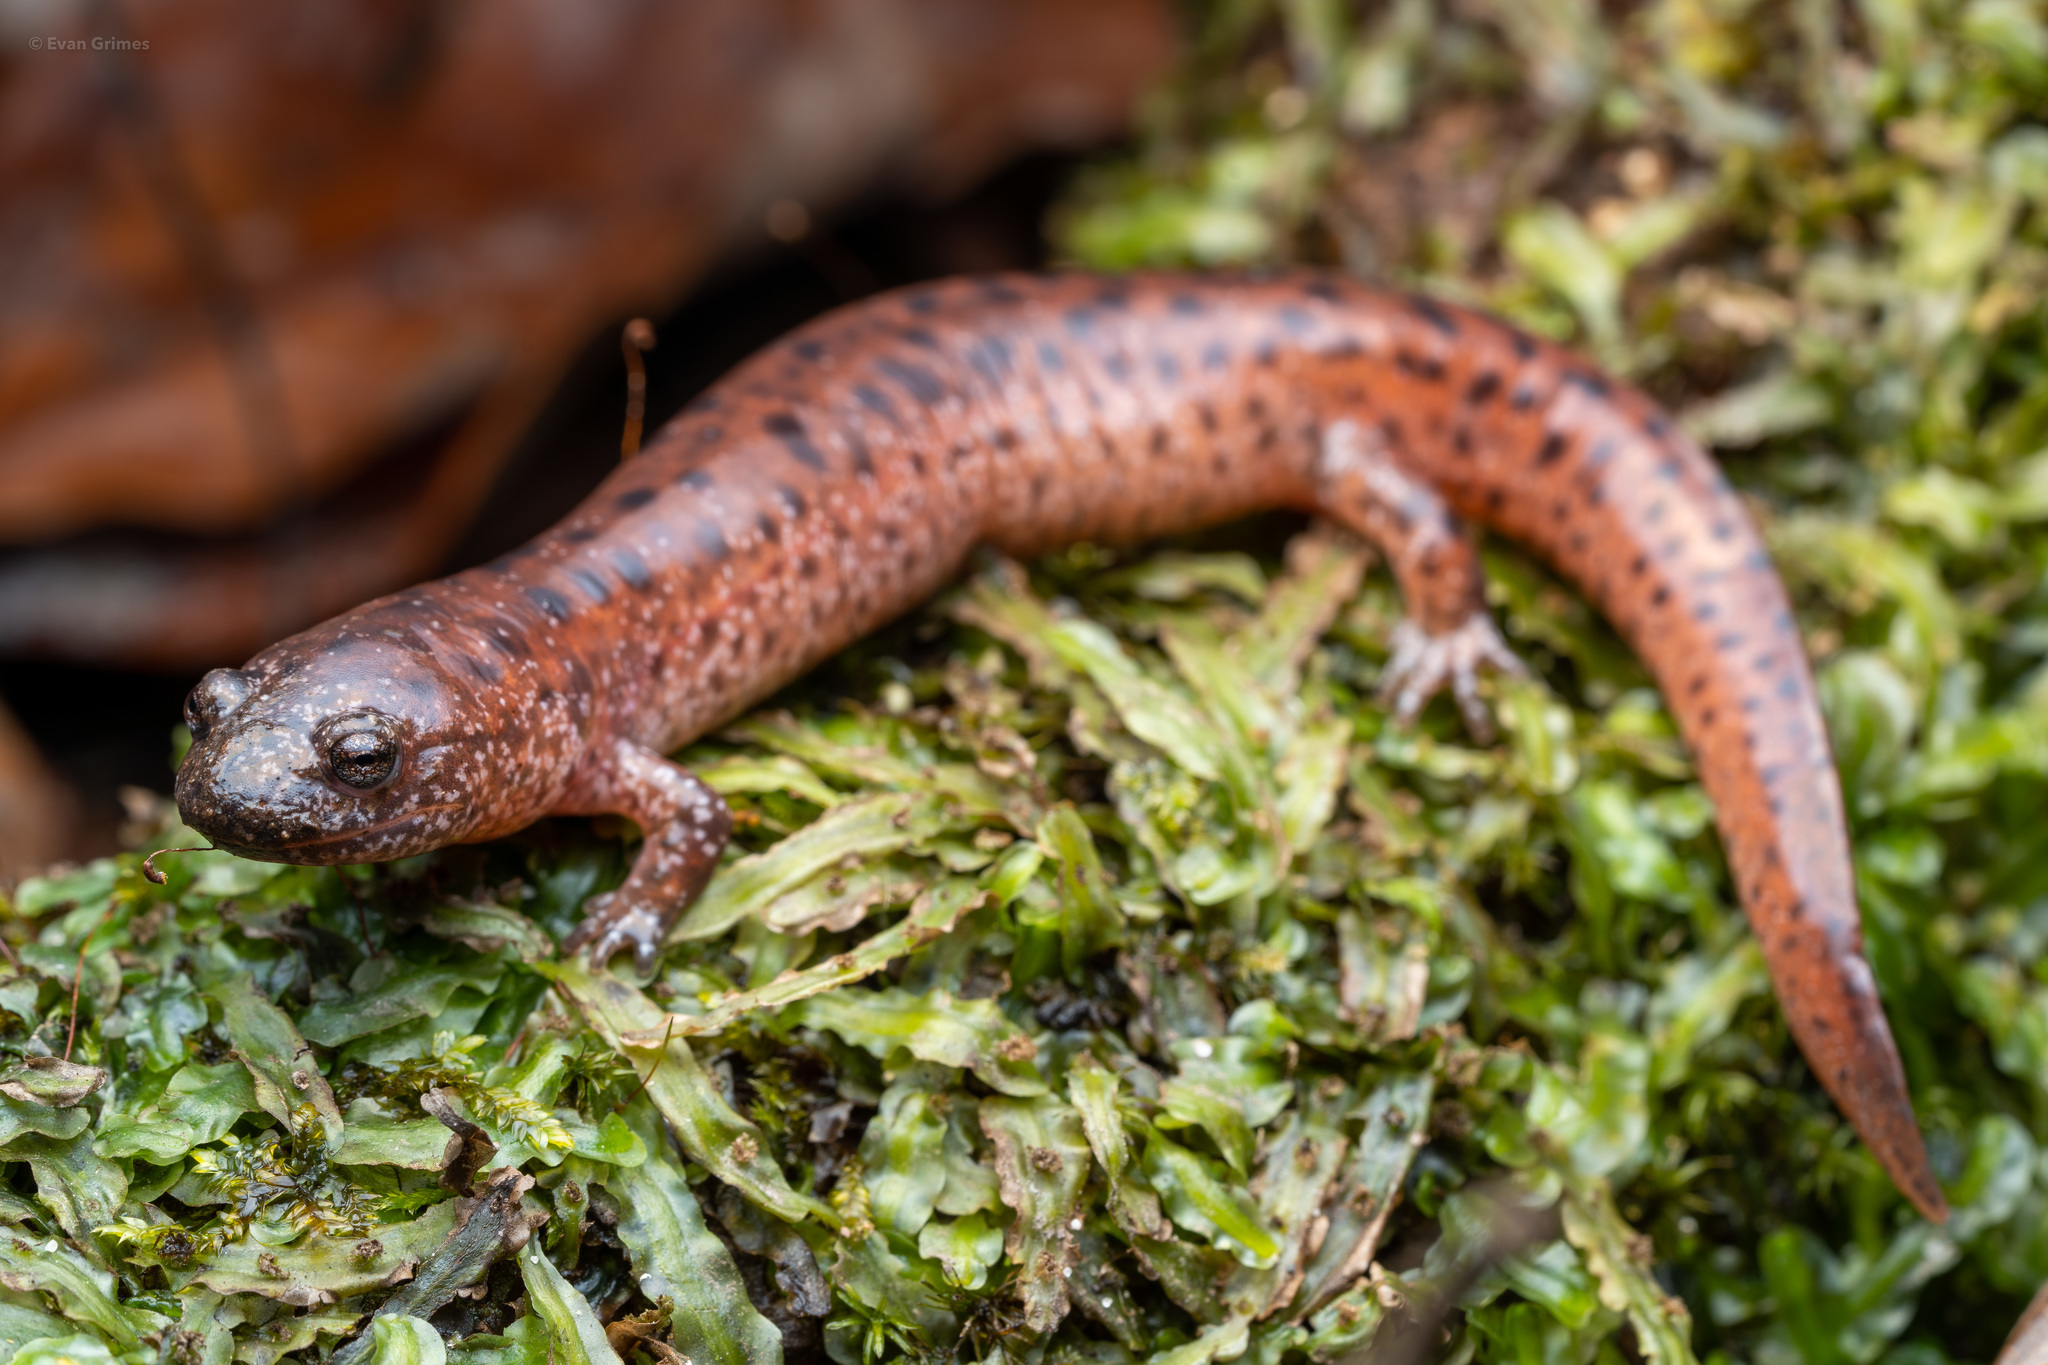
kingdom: Animalia
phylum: Chordata
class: Amphibia
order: Caudata
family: Plethodontidae
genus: Pseudotriton
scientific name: Pseudotriton ruber
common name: Red salamander
